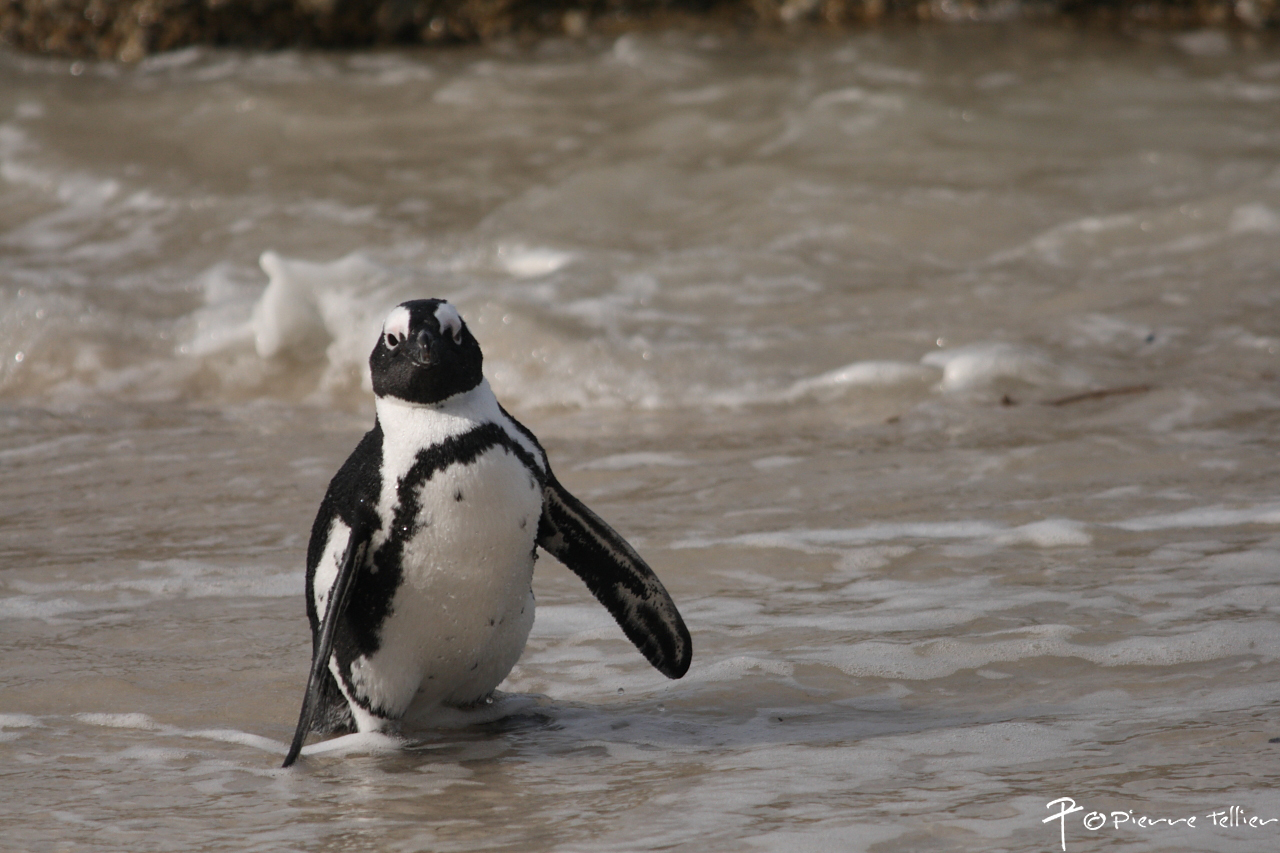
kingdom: Animalia
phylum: Chordata
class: Aves
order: Sphenisciformes
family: Spheniscidae
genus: Spheniscus
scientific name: Spheniscus demersus
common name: African penguin
